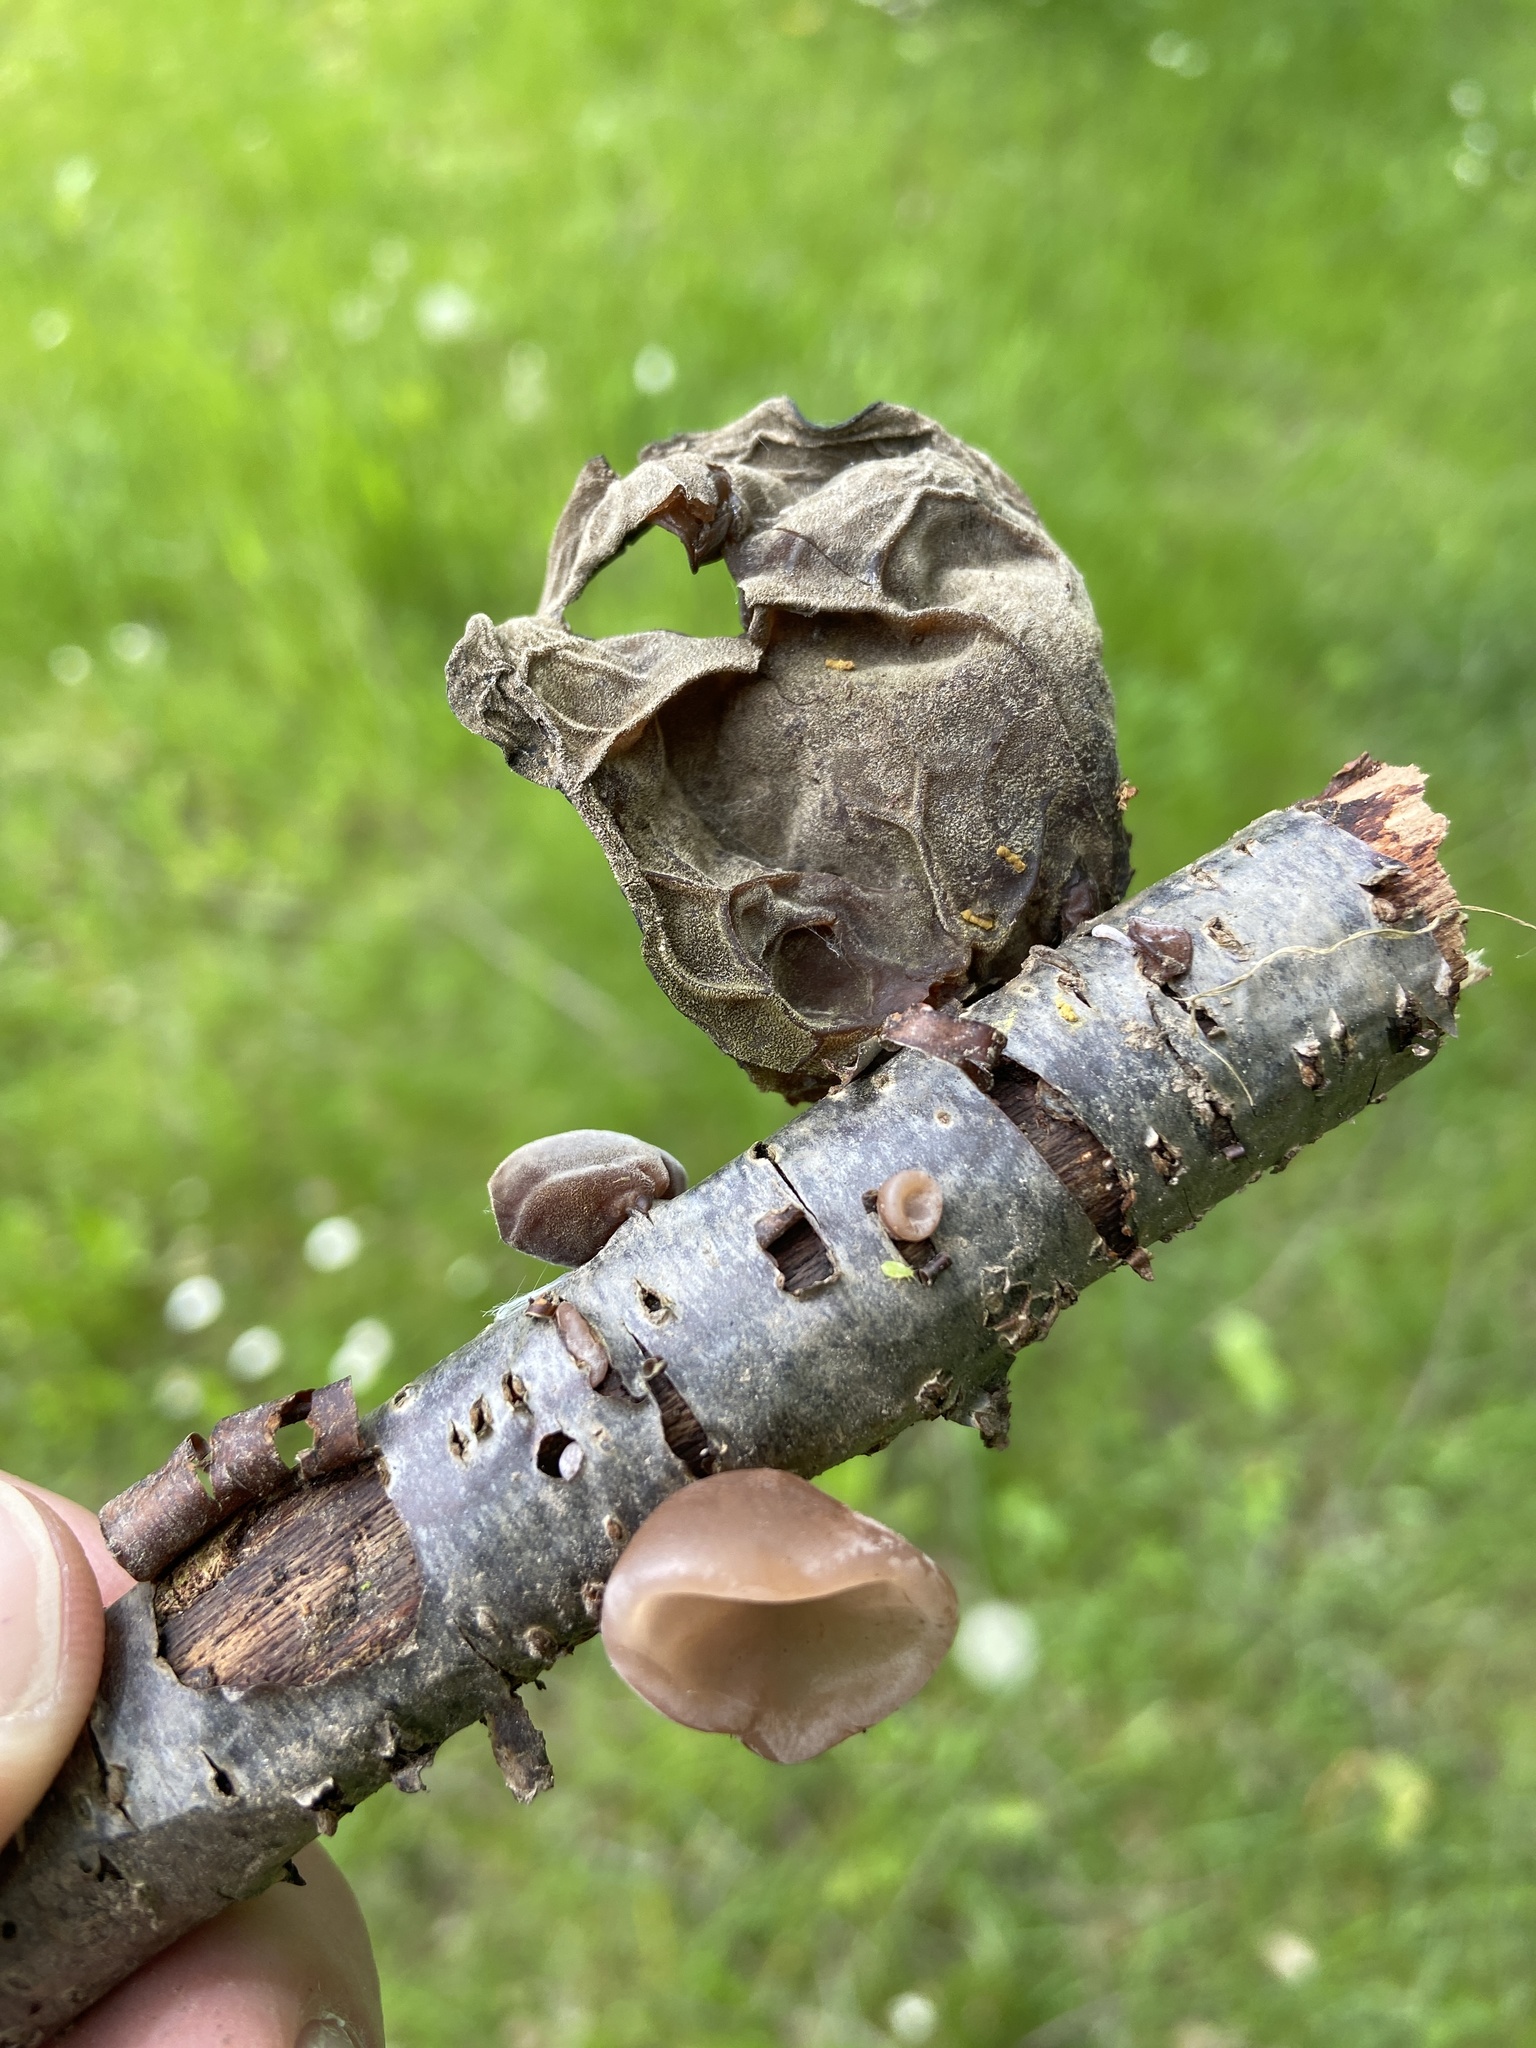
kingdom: Fungi
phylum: Basidiomycota
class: Agaricomycetes
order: Auriculariales
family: Auriculariaceae
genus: Auricularia
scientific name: Auricularia auricula-judae
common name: Jelly ear
